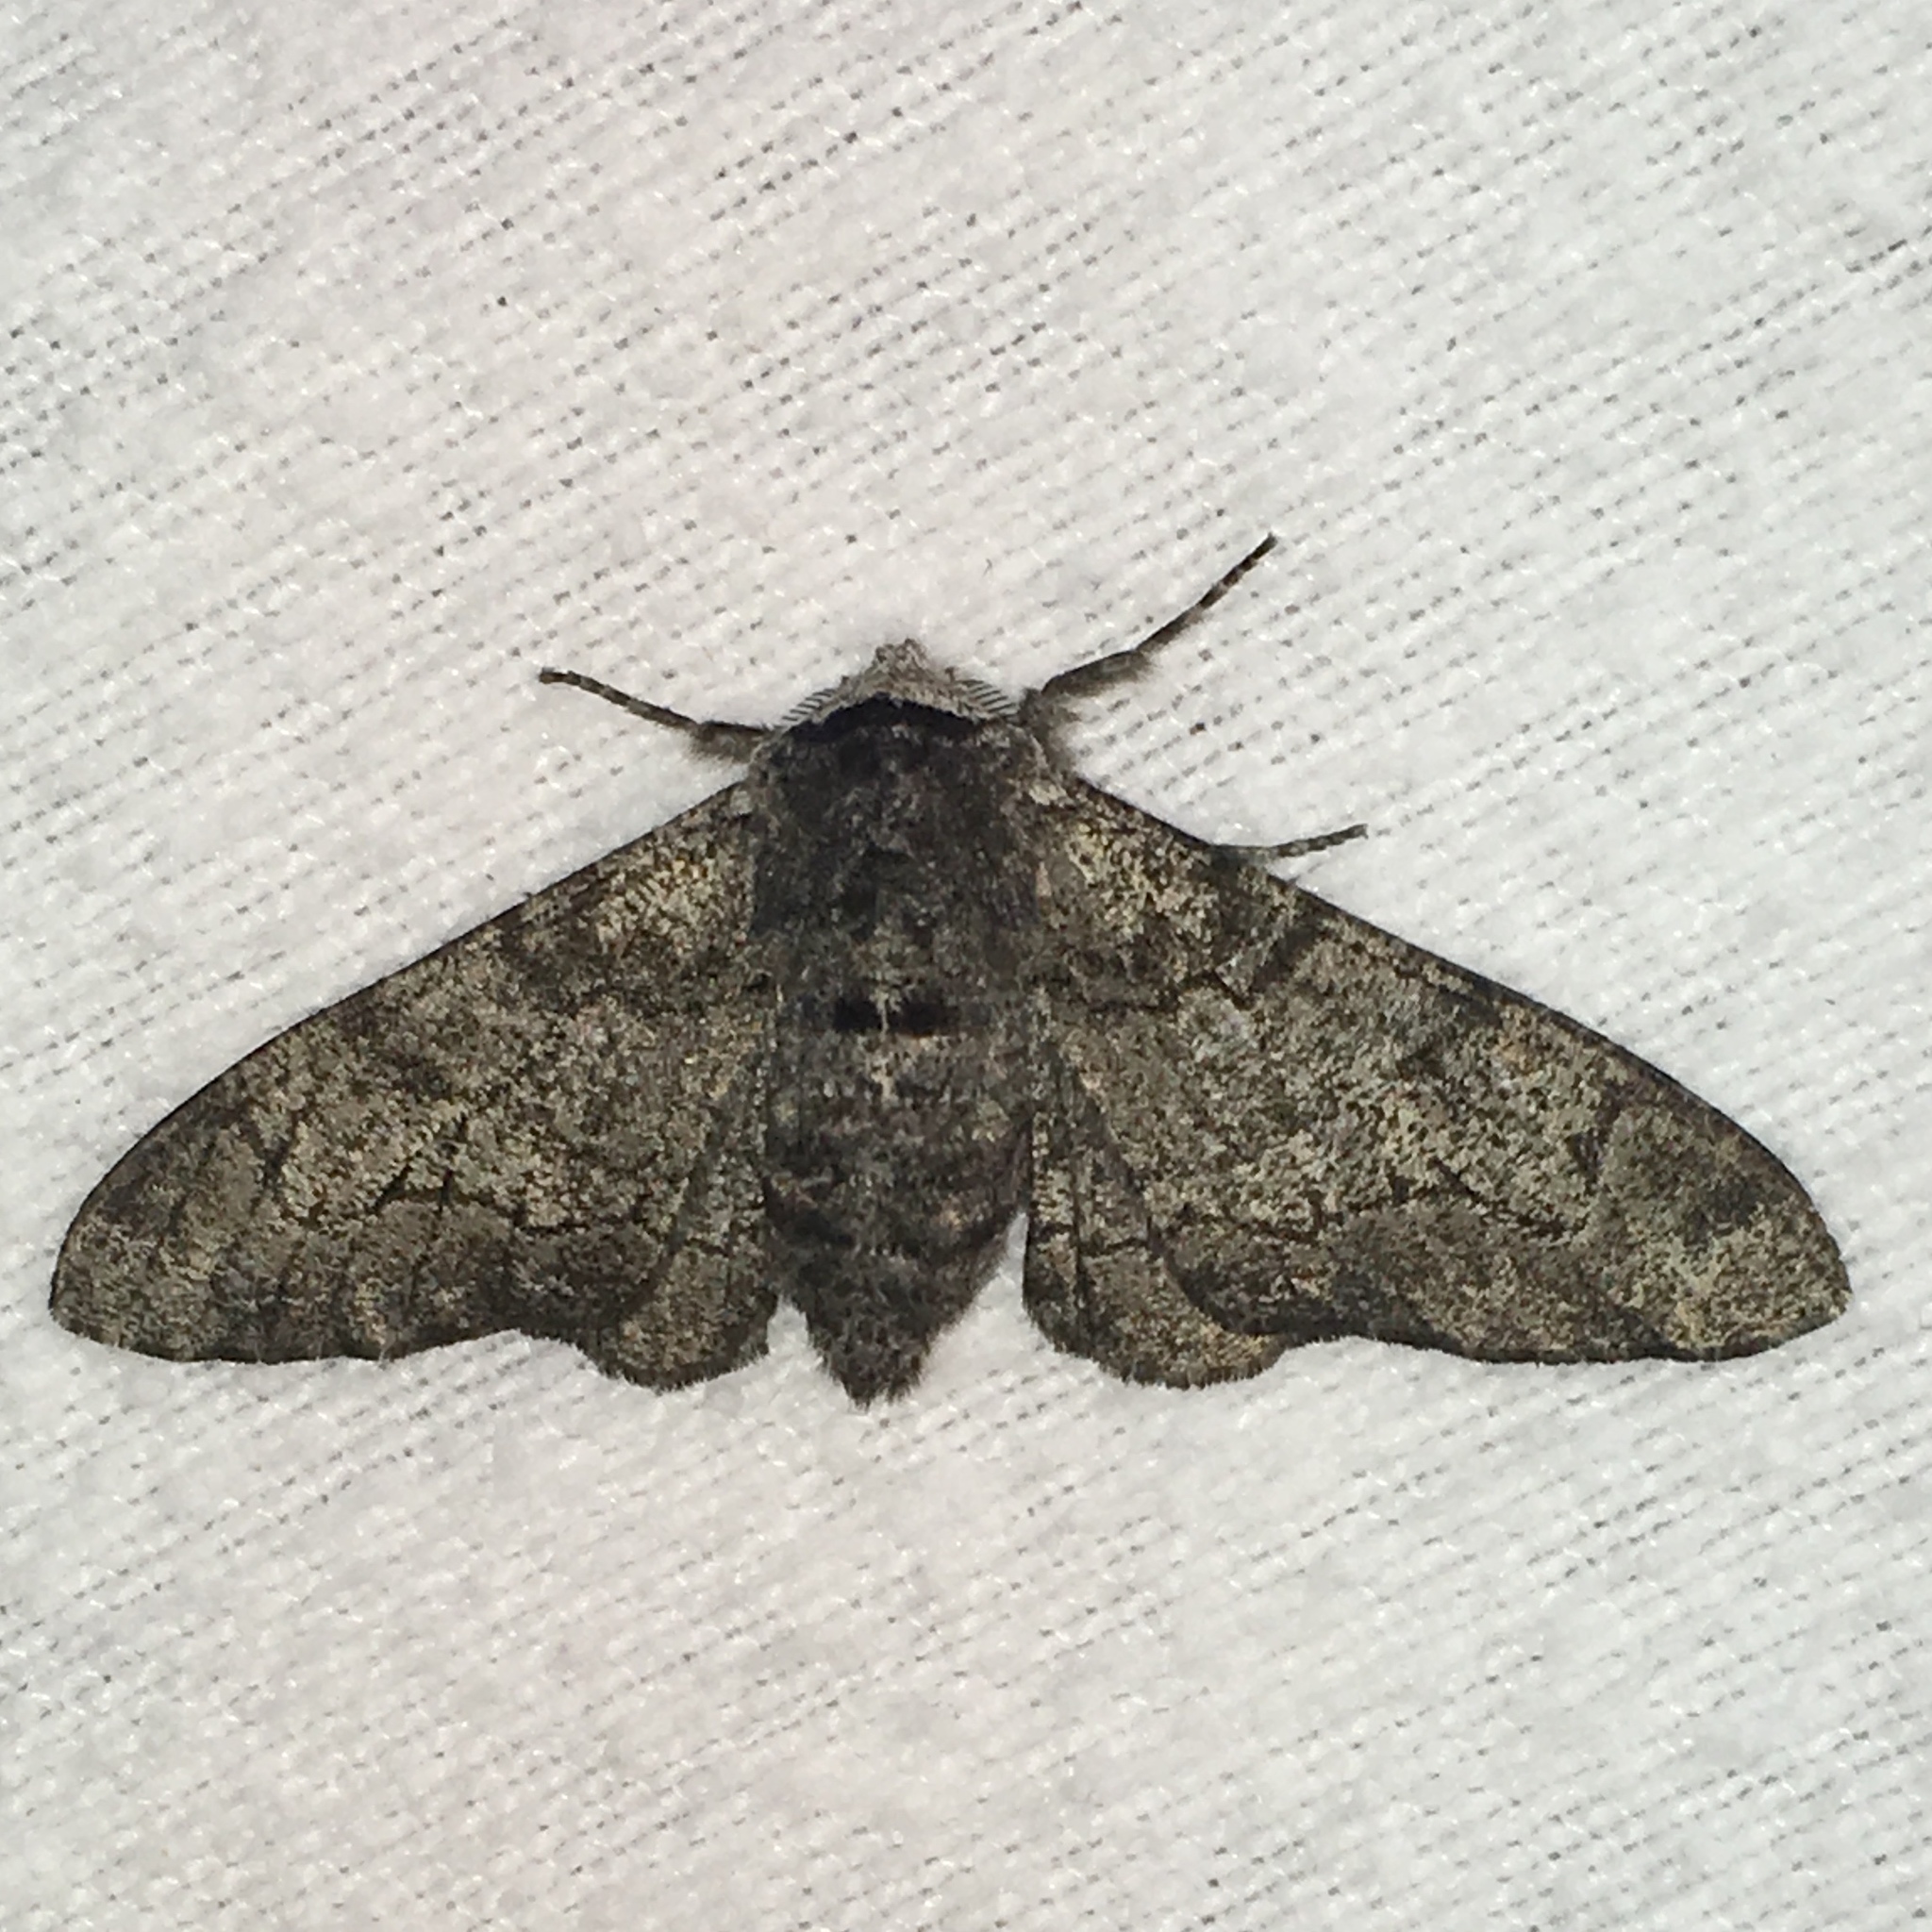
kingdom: Animalia
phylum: Arthropoda
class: Insecta
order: Lepidoptera
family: Geometridae
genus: Biston
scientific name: Biston betularia
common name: Peppered moth
